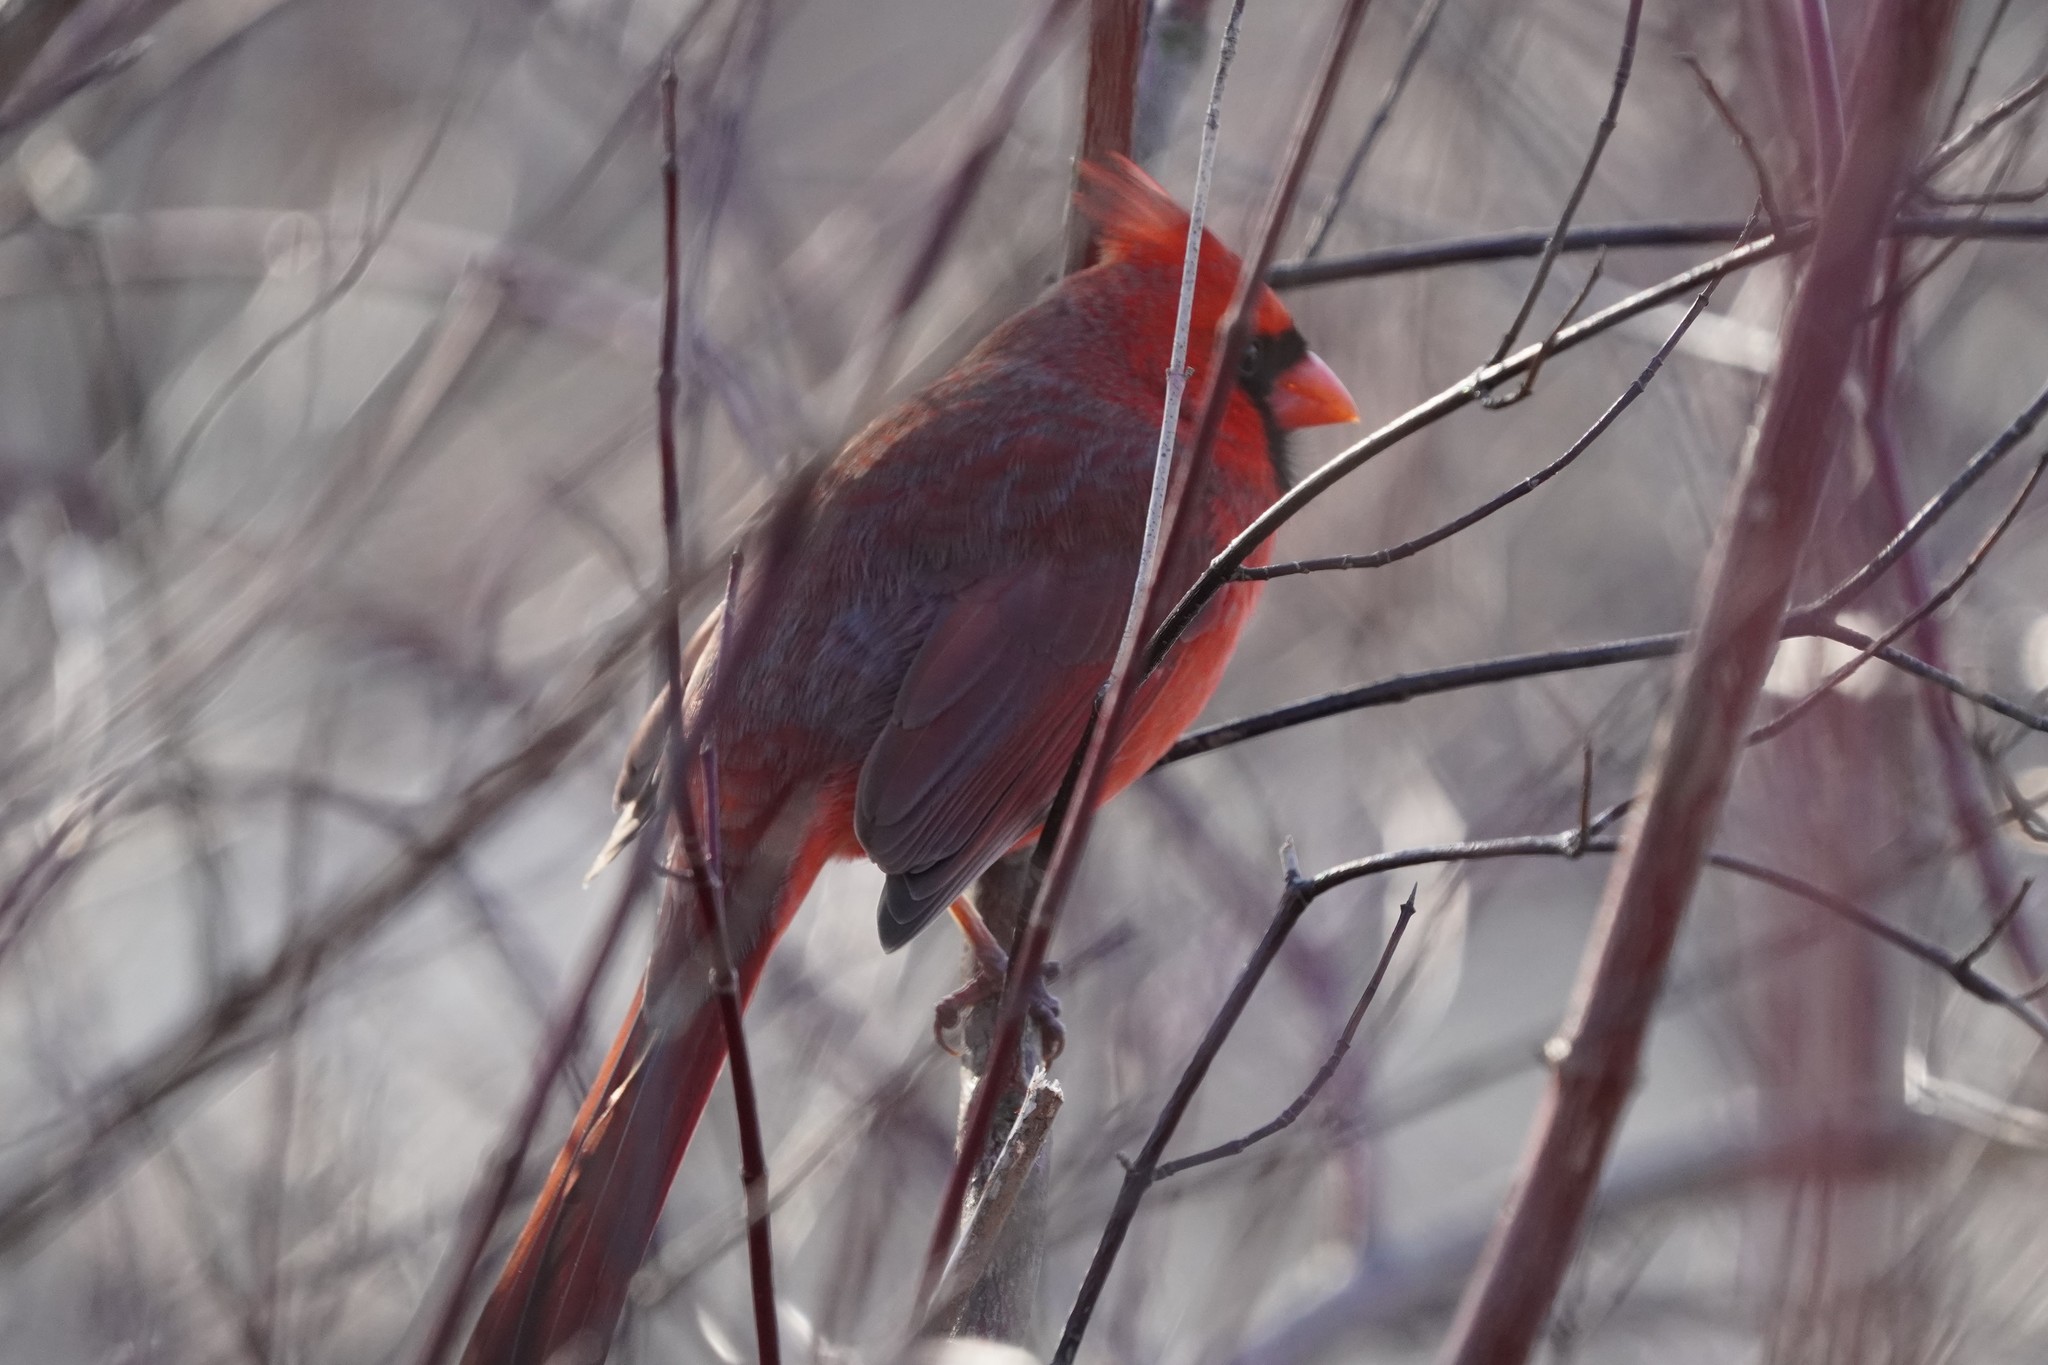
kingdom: Animalia
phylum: Chordata
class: Aves
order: Passeriformes
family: Cardinalidae
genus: Cardinalis
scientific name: Cardinalis cardinalis
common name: Northern cardinal
